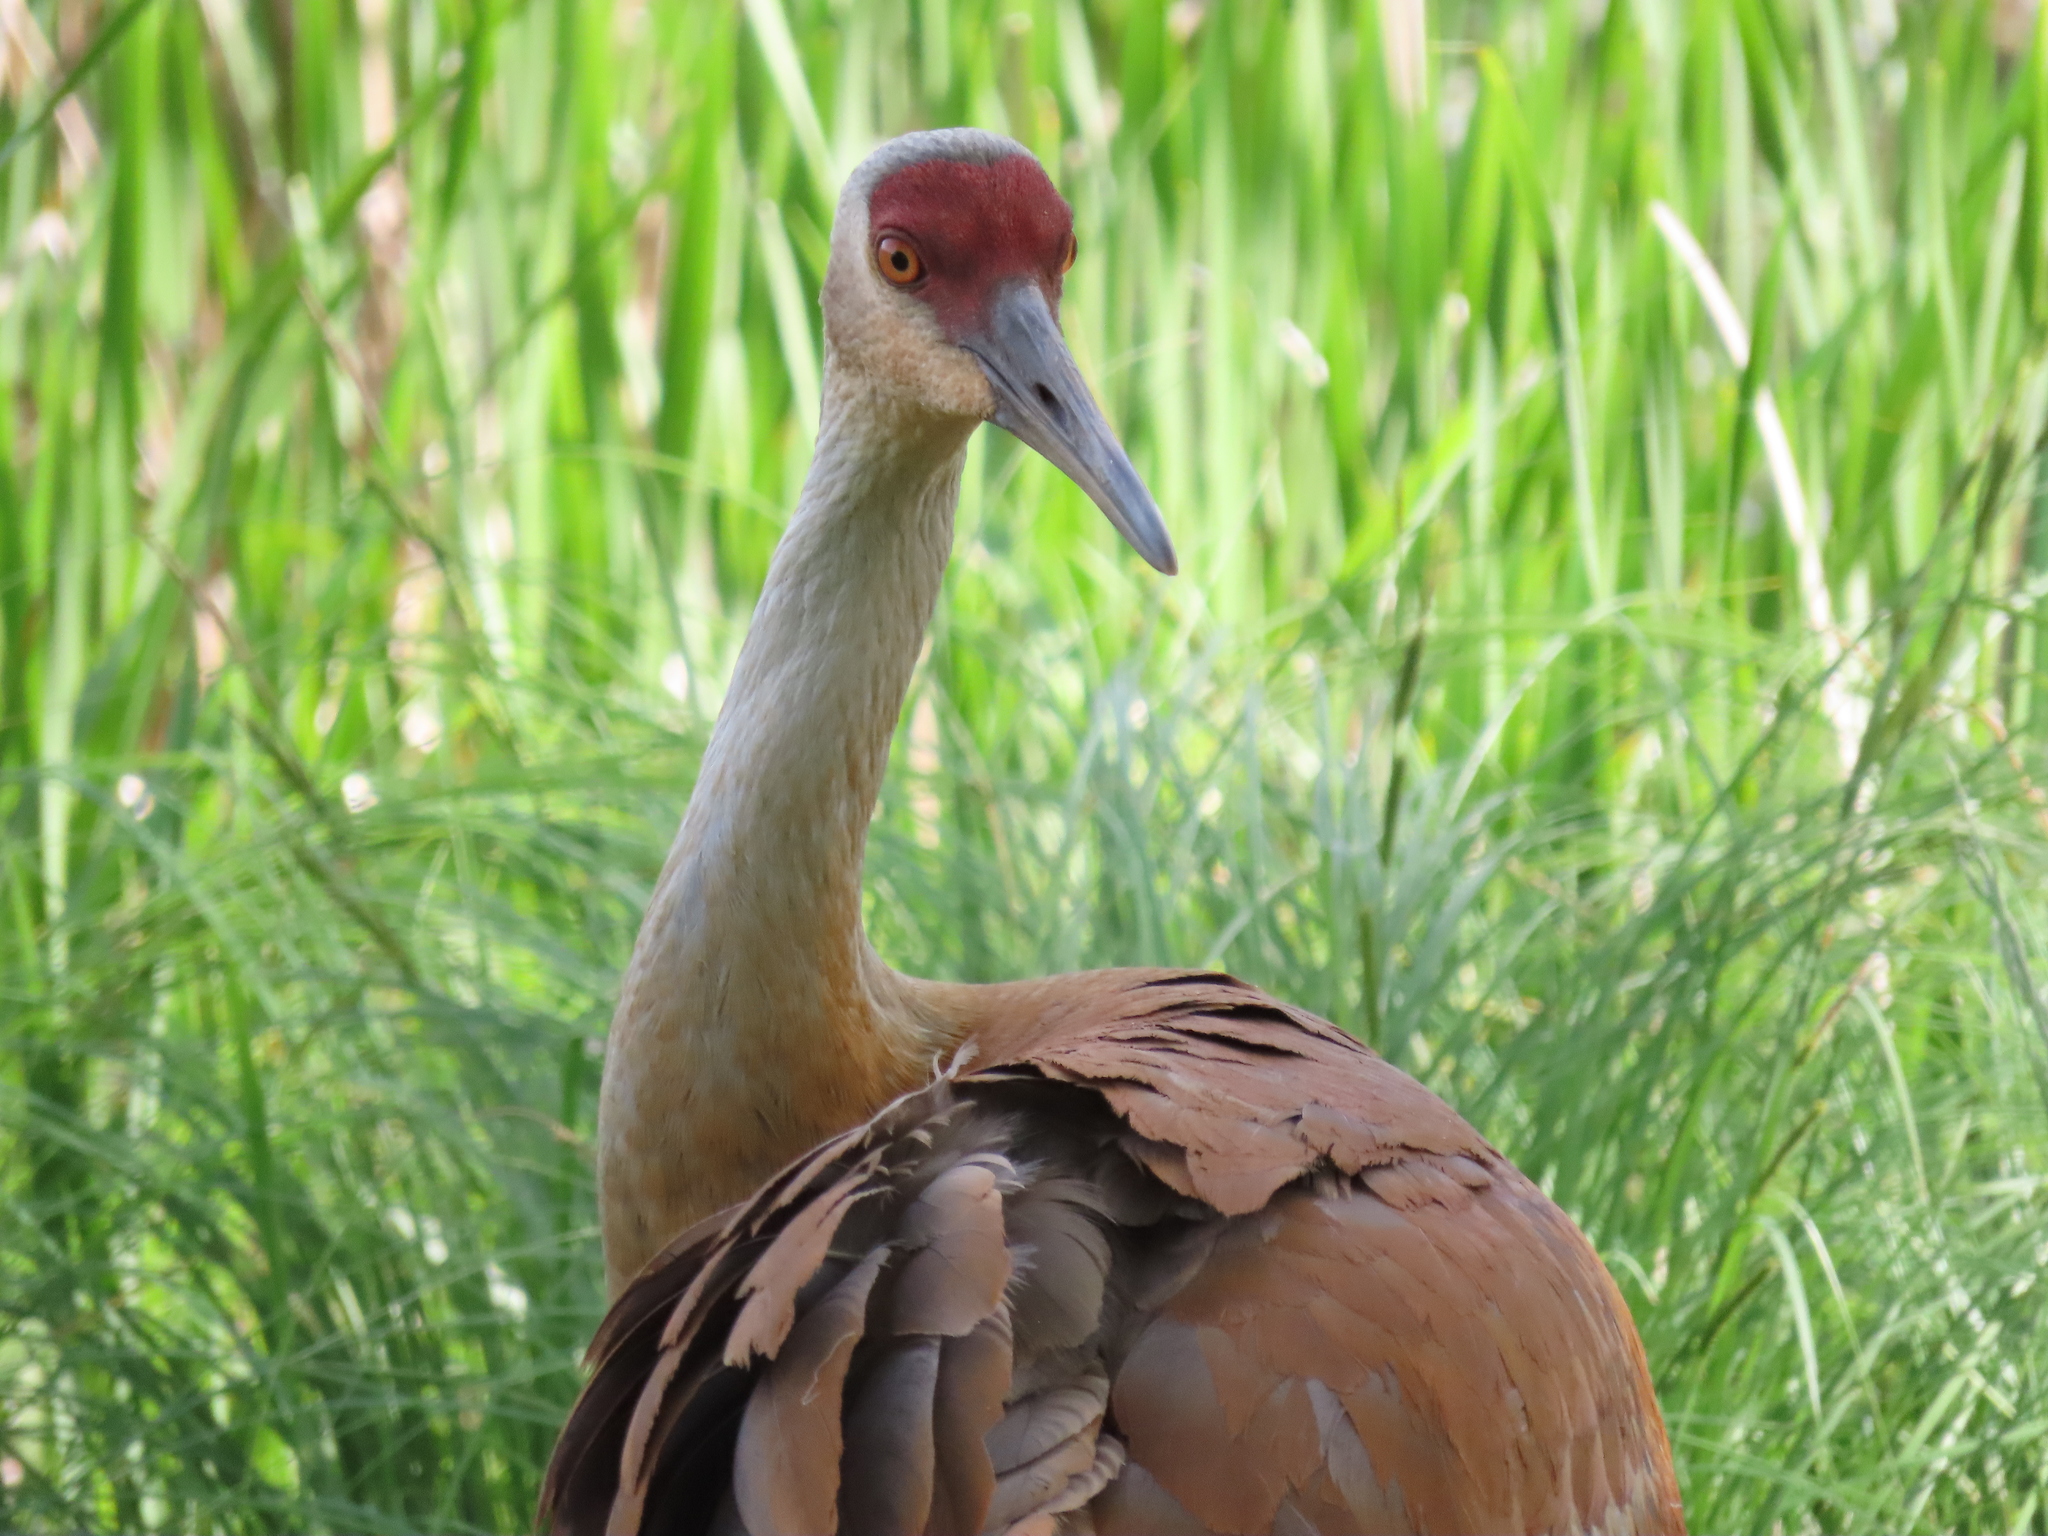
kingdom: Animalia
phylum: Chordata
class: Aves
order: Gruiformes
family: Gruidae
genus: Grus
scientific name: Grus canadensis
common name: Sandhill crane
